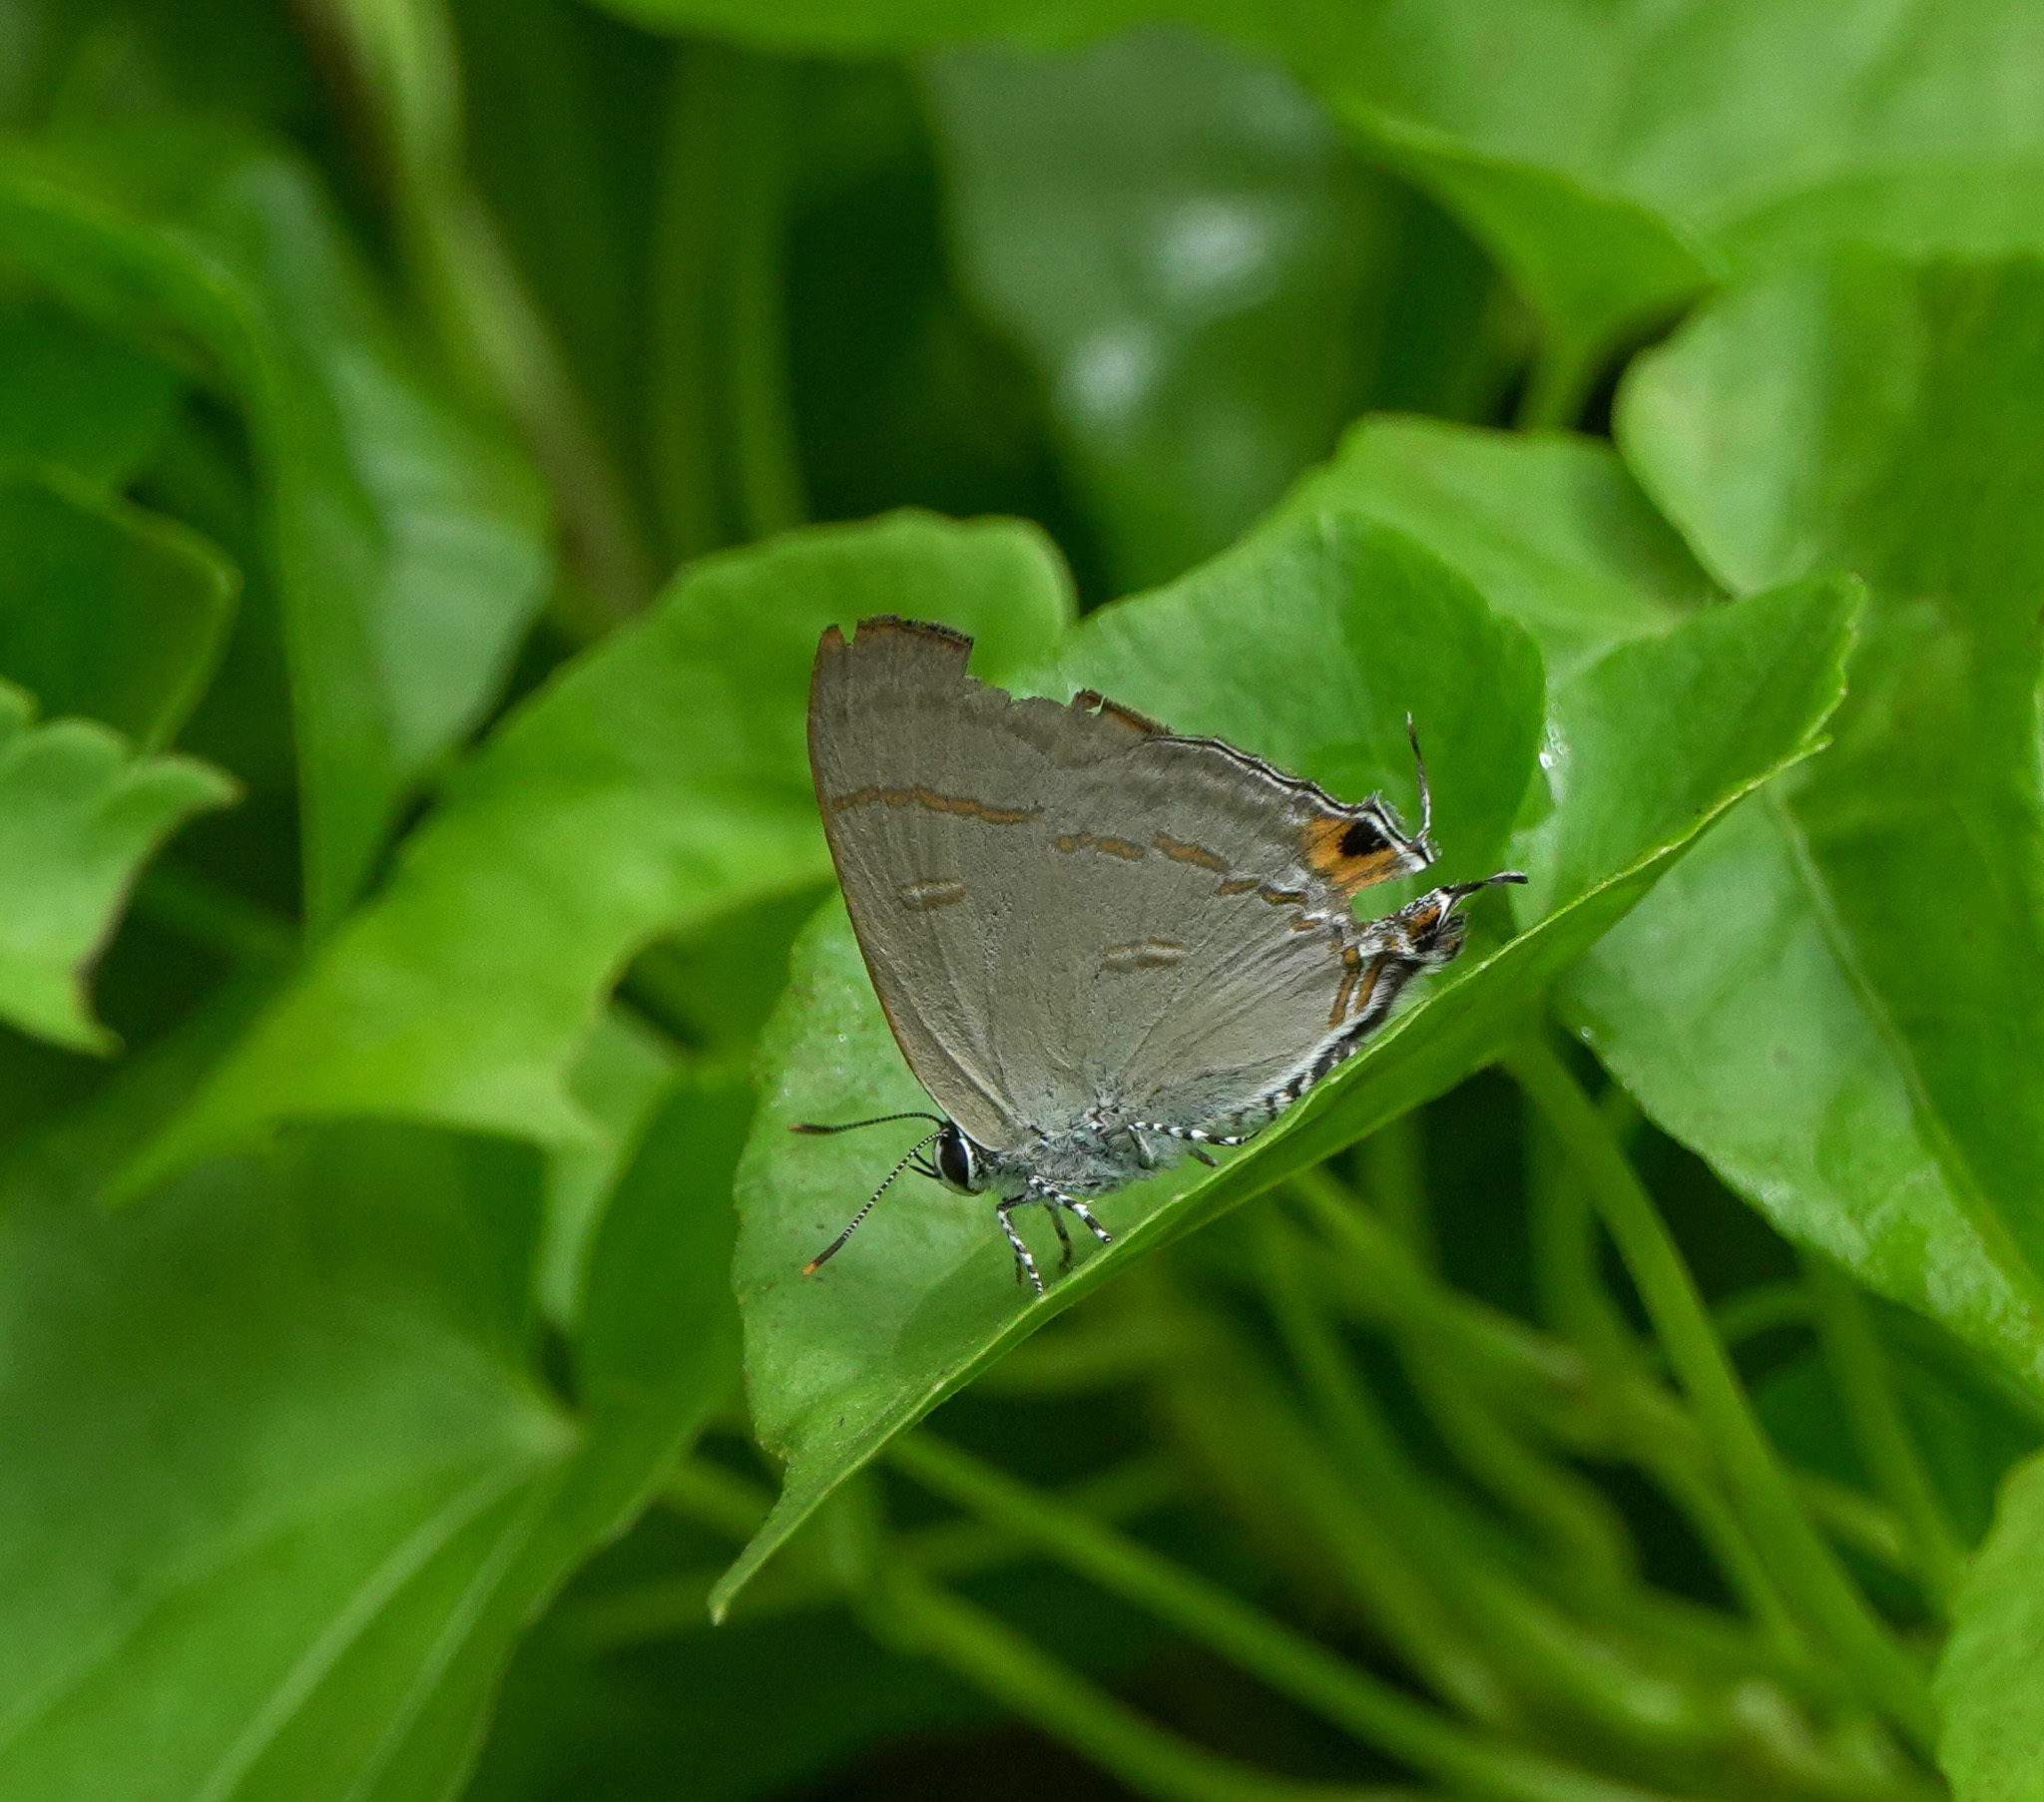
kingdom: Animalia
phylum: Arthropoda
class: Insecta
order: Lepidoptera
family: Lycaenidae
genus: Hypolycaena
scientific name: Hypolycaena erylus
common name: Common tit
